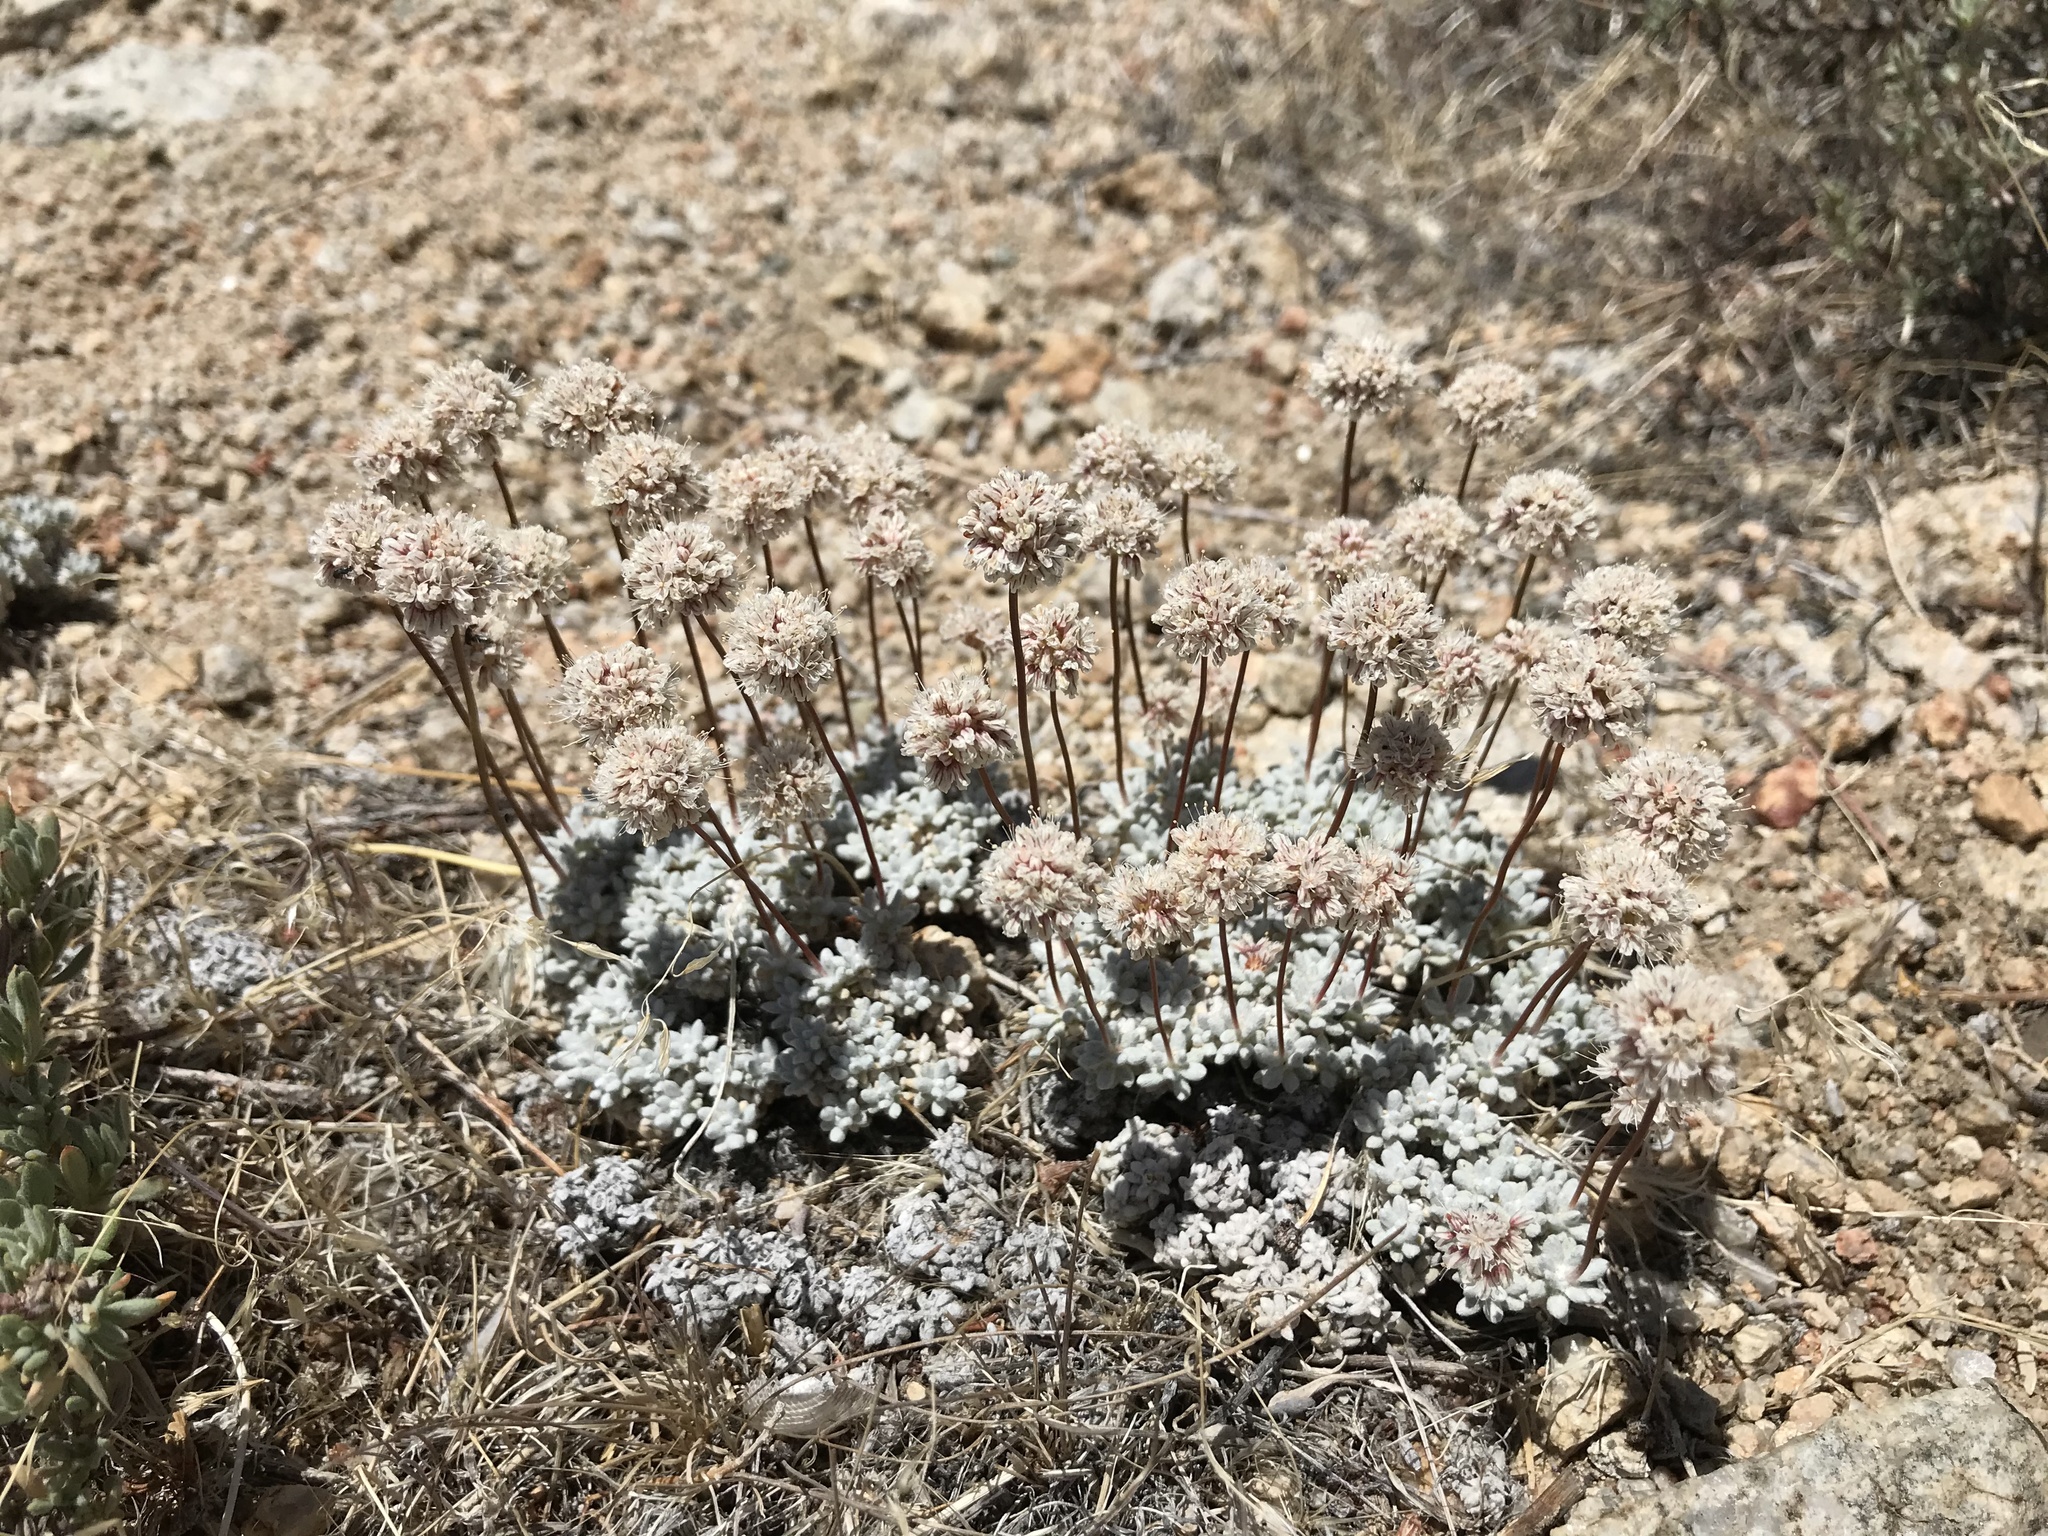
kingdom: Plantae
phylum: Tracheophyta
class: Magnoliopsida
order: Caryophyllales
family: Polygonaceae
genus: Eriogonum
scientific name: Eriogonum ovalifolium
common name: Cushion buckwheat
